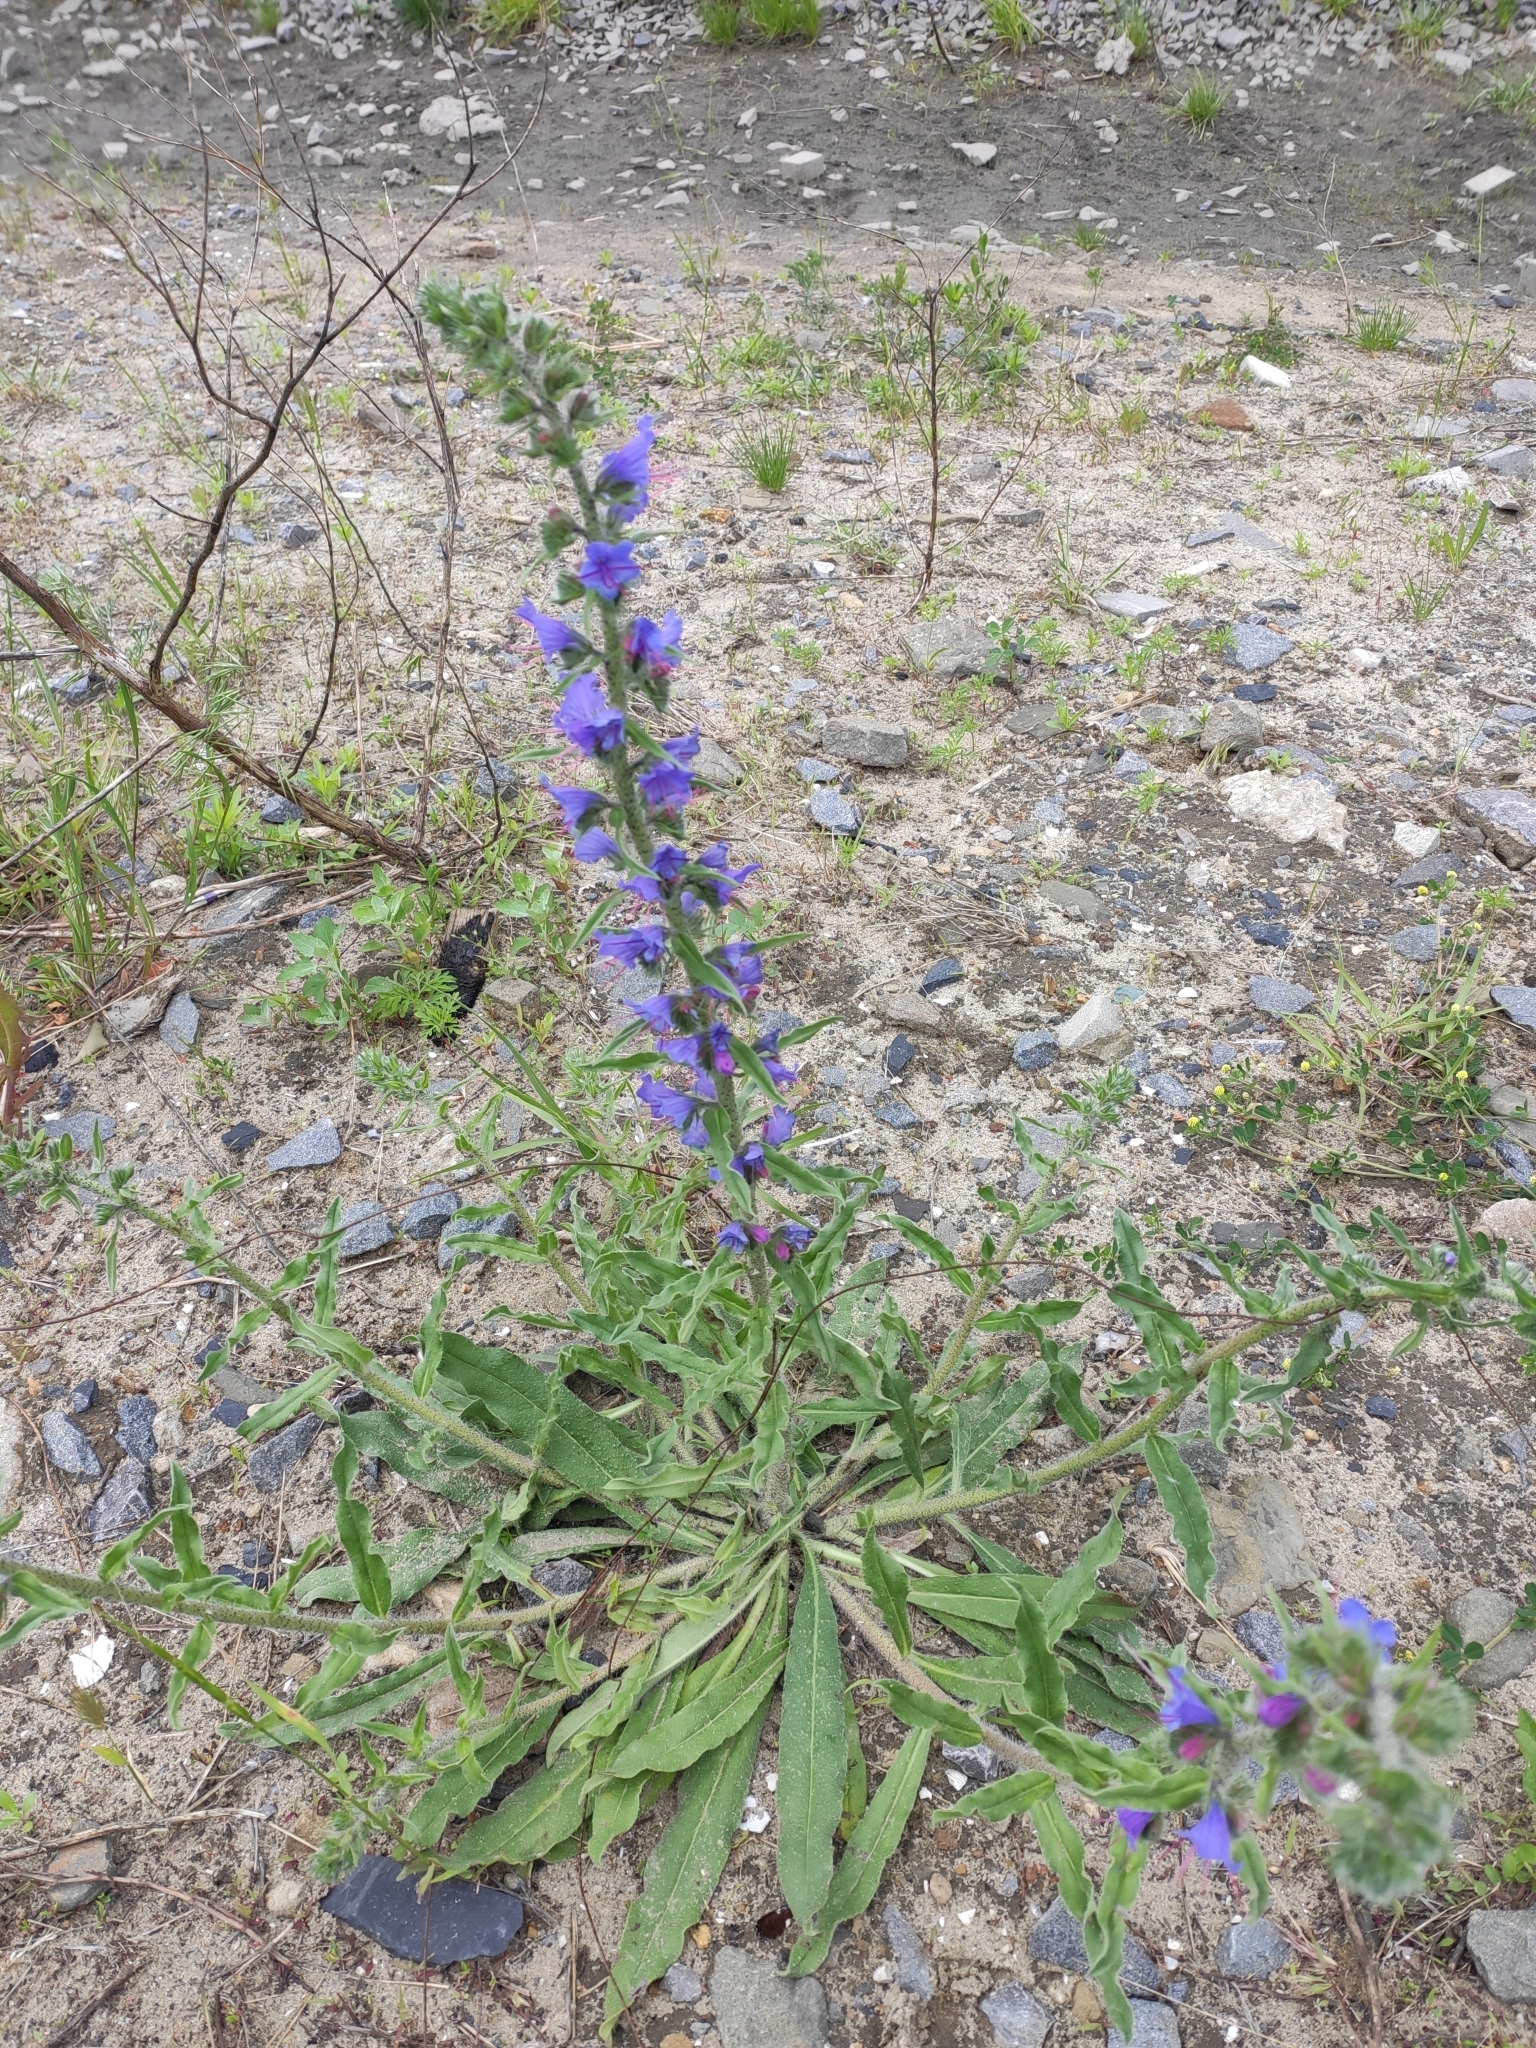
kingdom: Plantae
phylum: Tracheophyta
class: Magnoliopsida
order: Boraginales
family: Boraginaceae
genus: Echium
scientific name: Echium vulgare
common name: Common viper's bugloss
